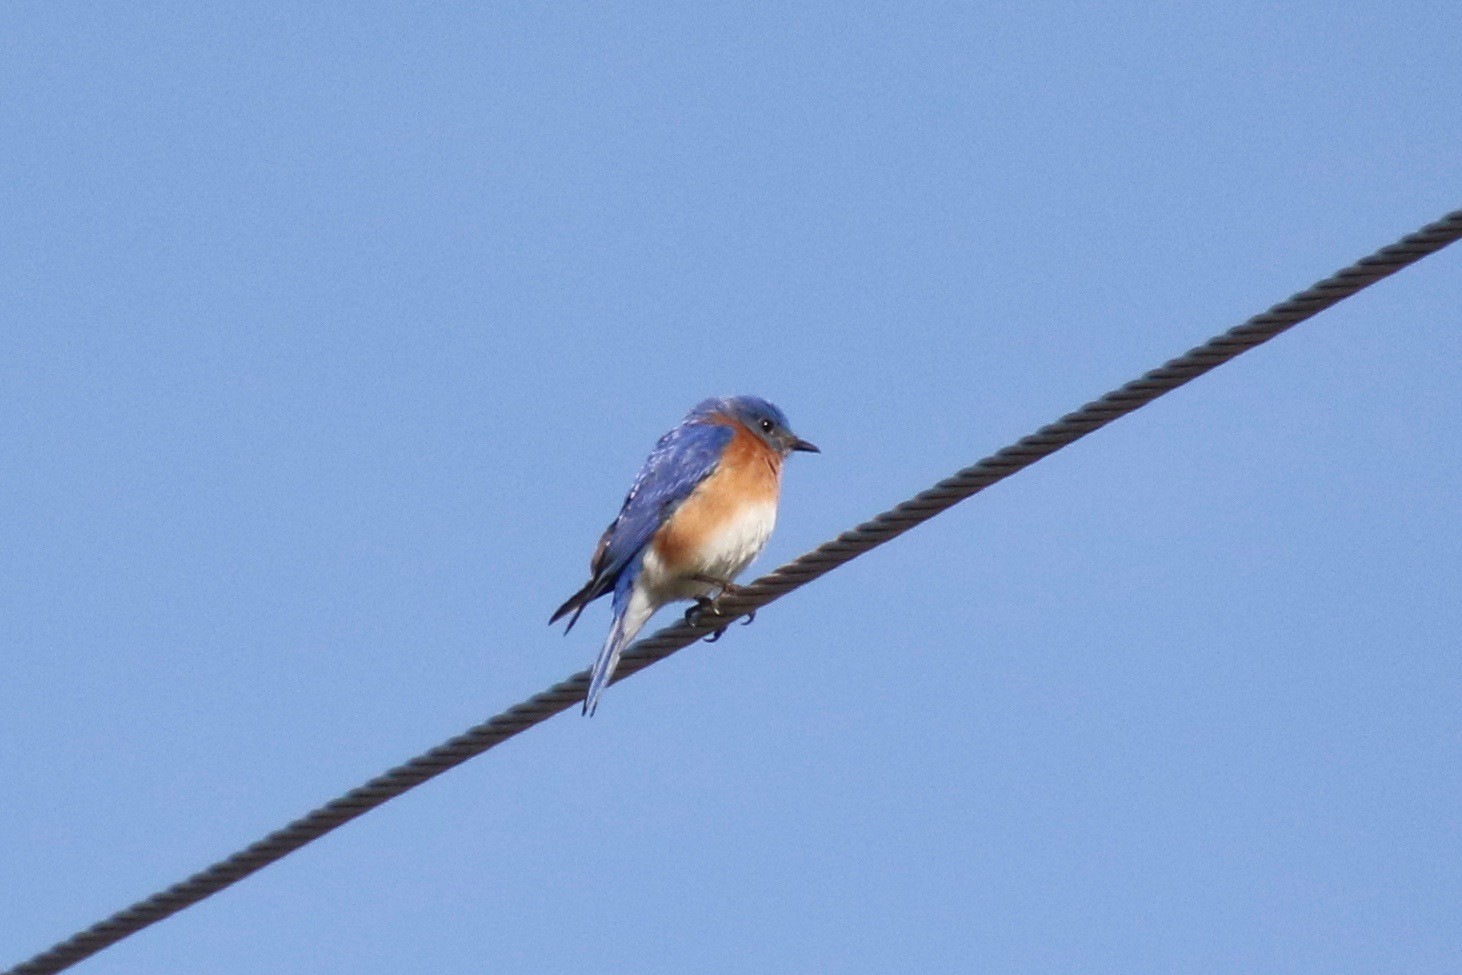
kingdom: Animalia
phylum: Chordata
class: Aves
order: Passeriformes
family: Turdidae
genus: Sialia
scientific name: Sialia sialis
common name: Eastern bluebird
